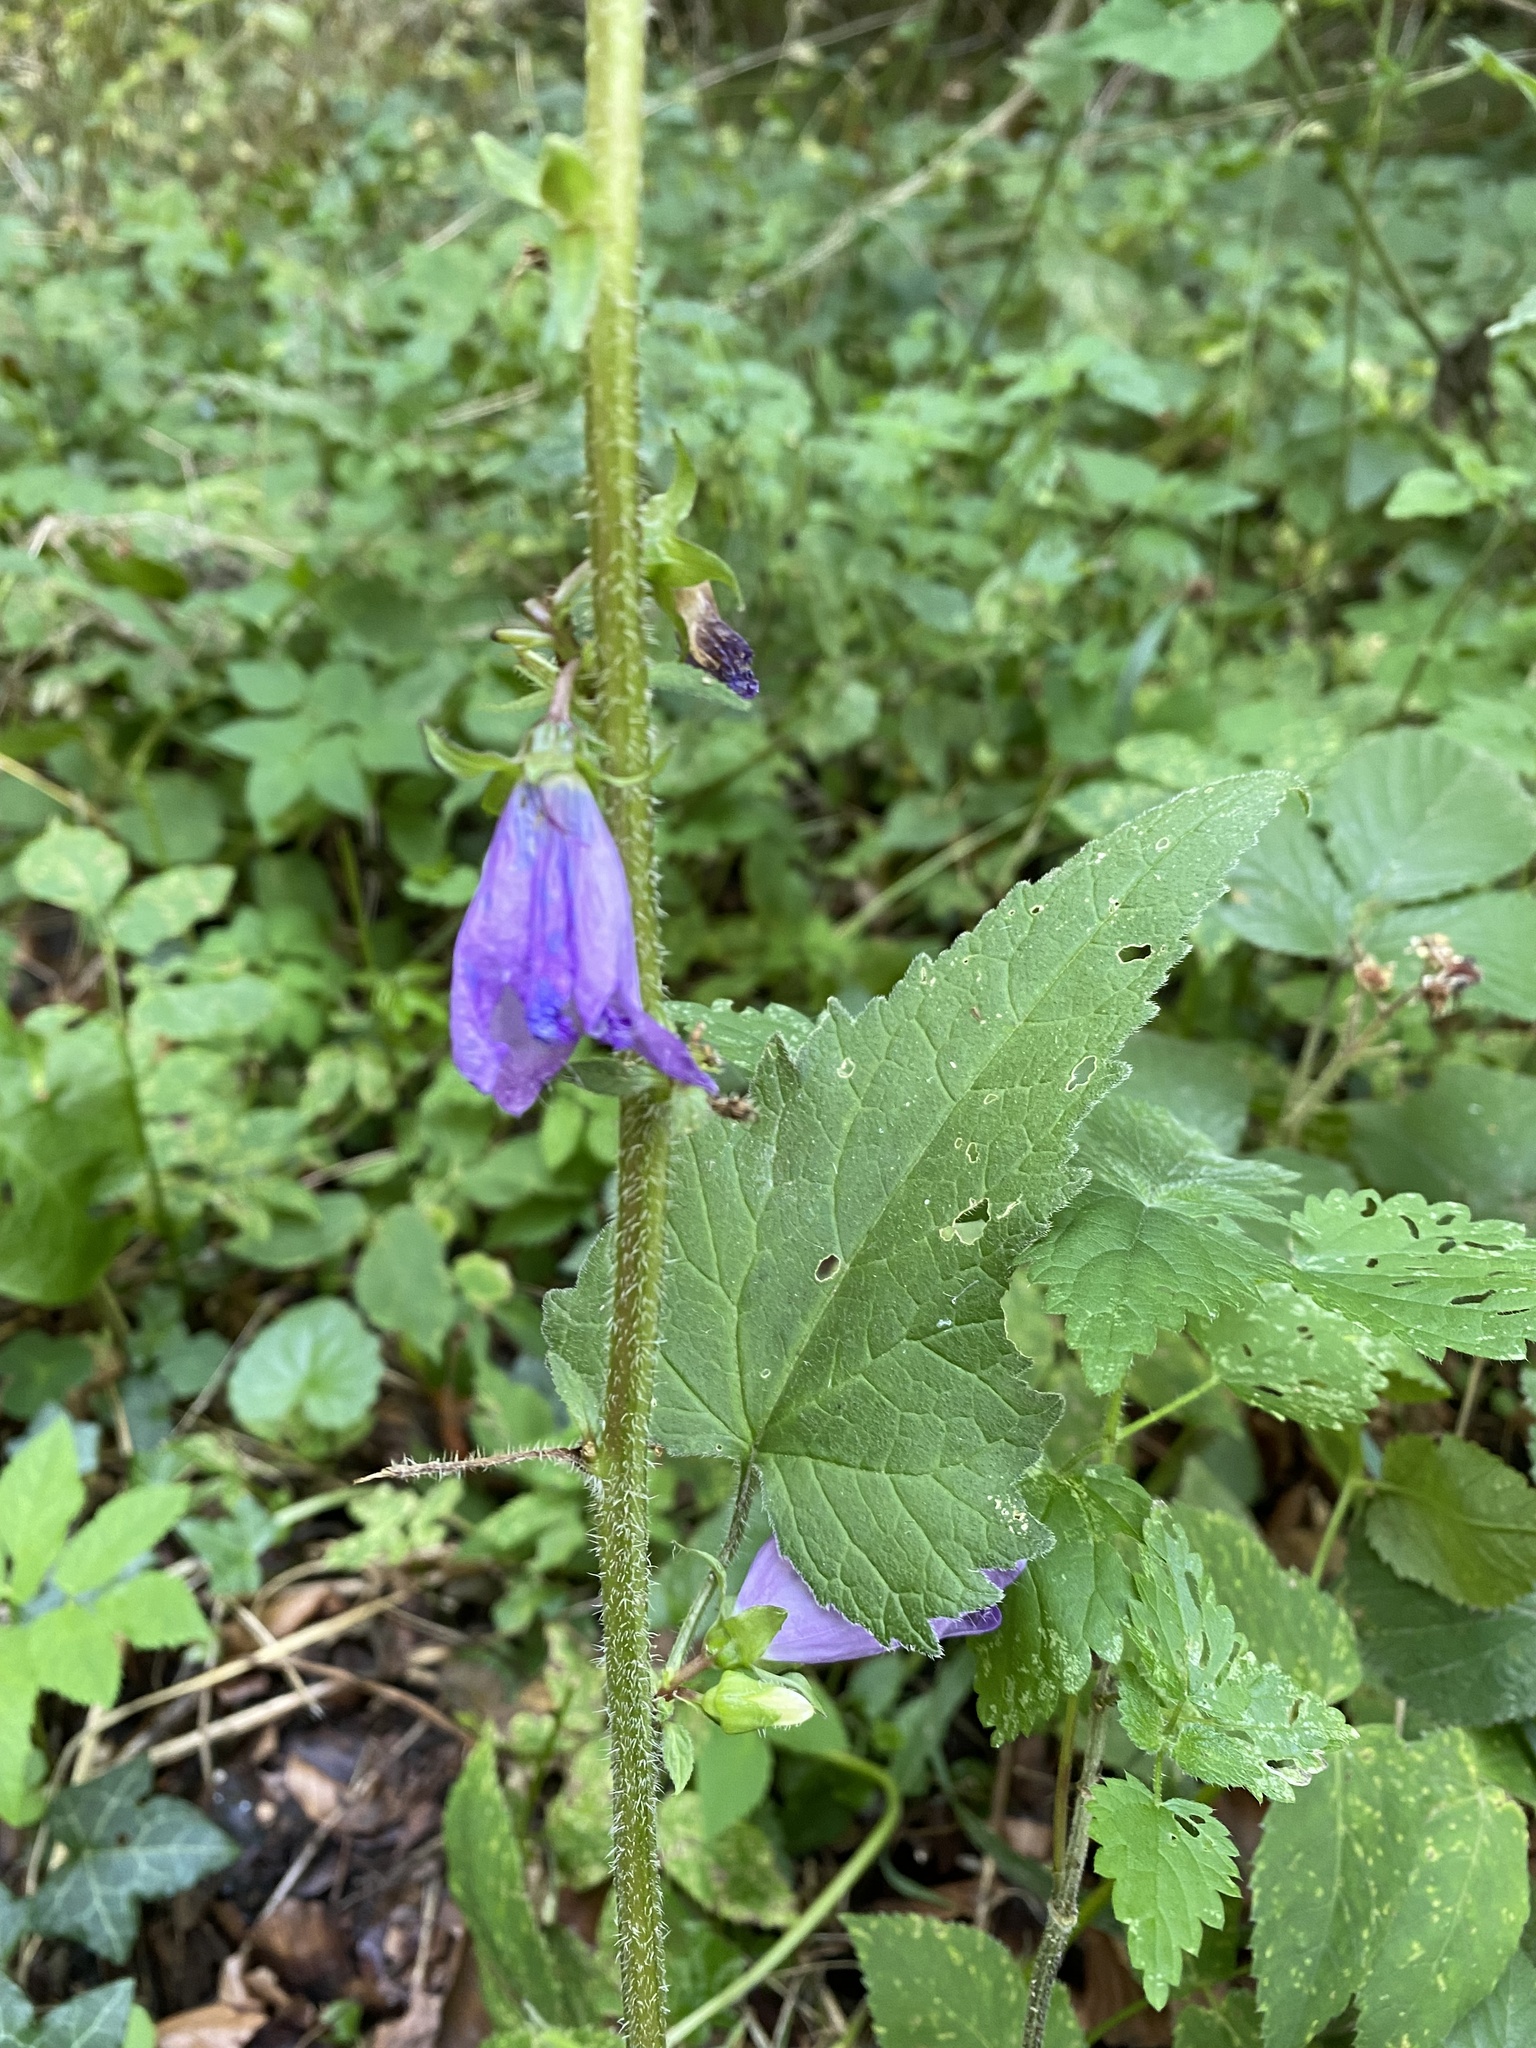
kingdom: Plantae
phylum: Tracheophyta
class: Magnoliopsida
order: Asterales
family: Campanulaceae
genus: Campanula
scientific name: Campanula trachelium
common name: Nettle-leaved bellflower
